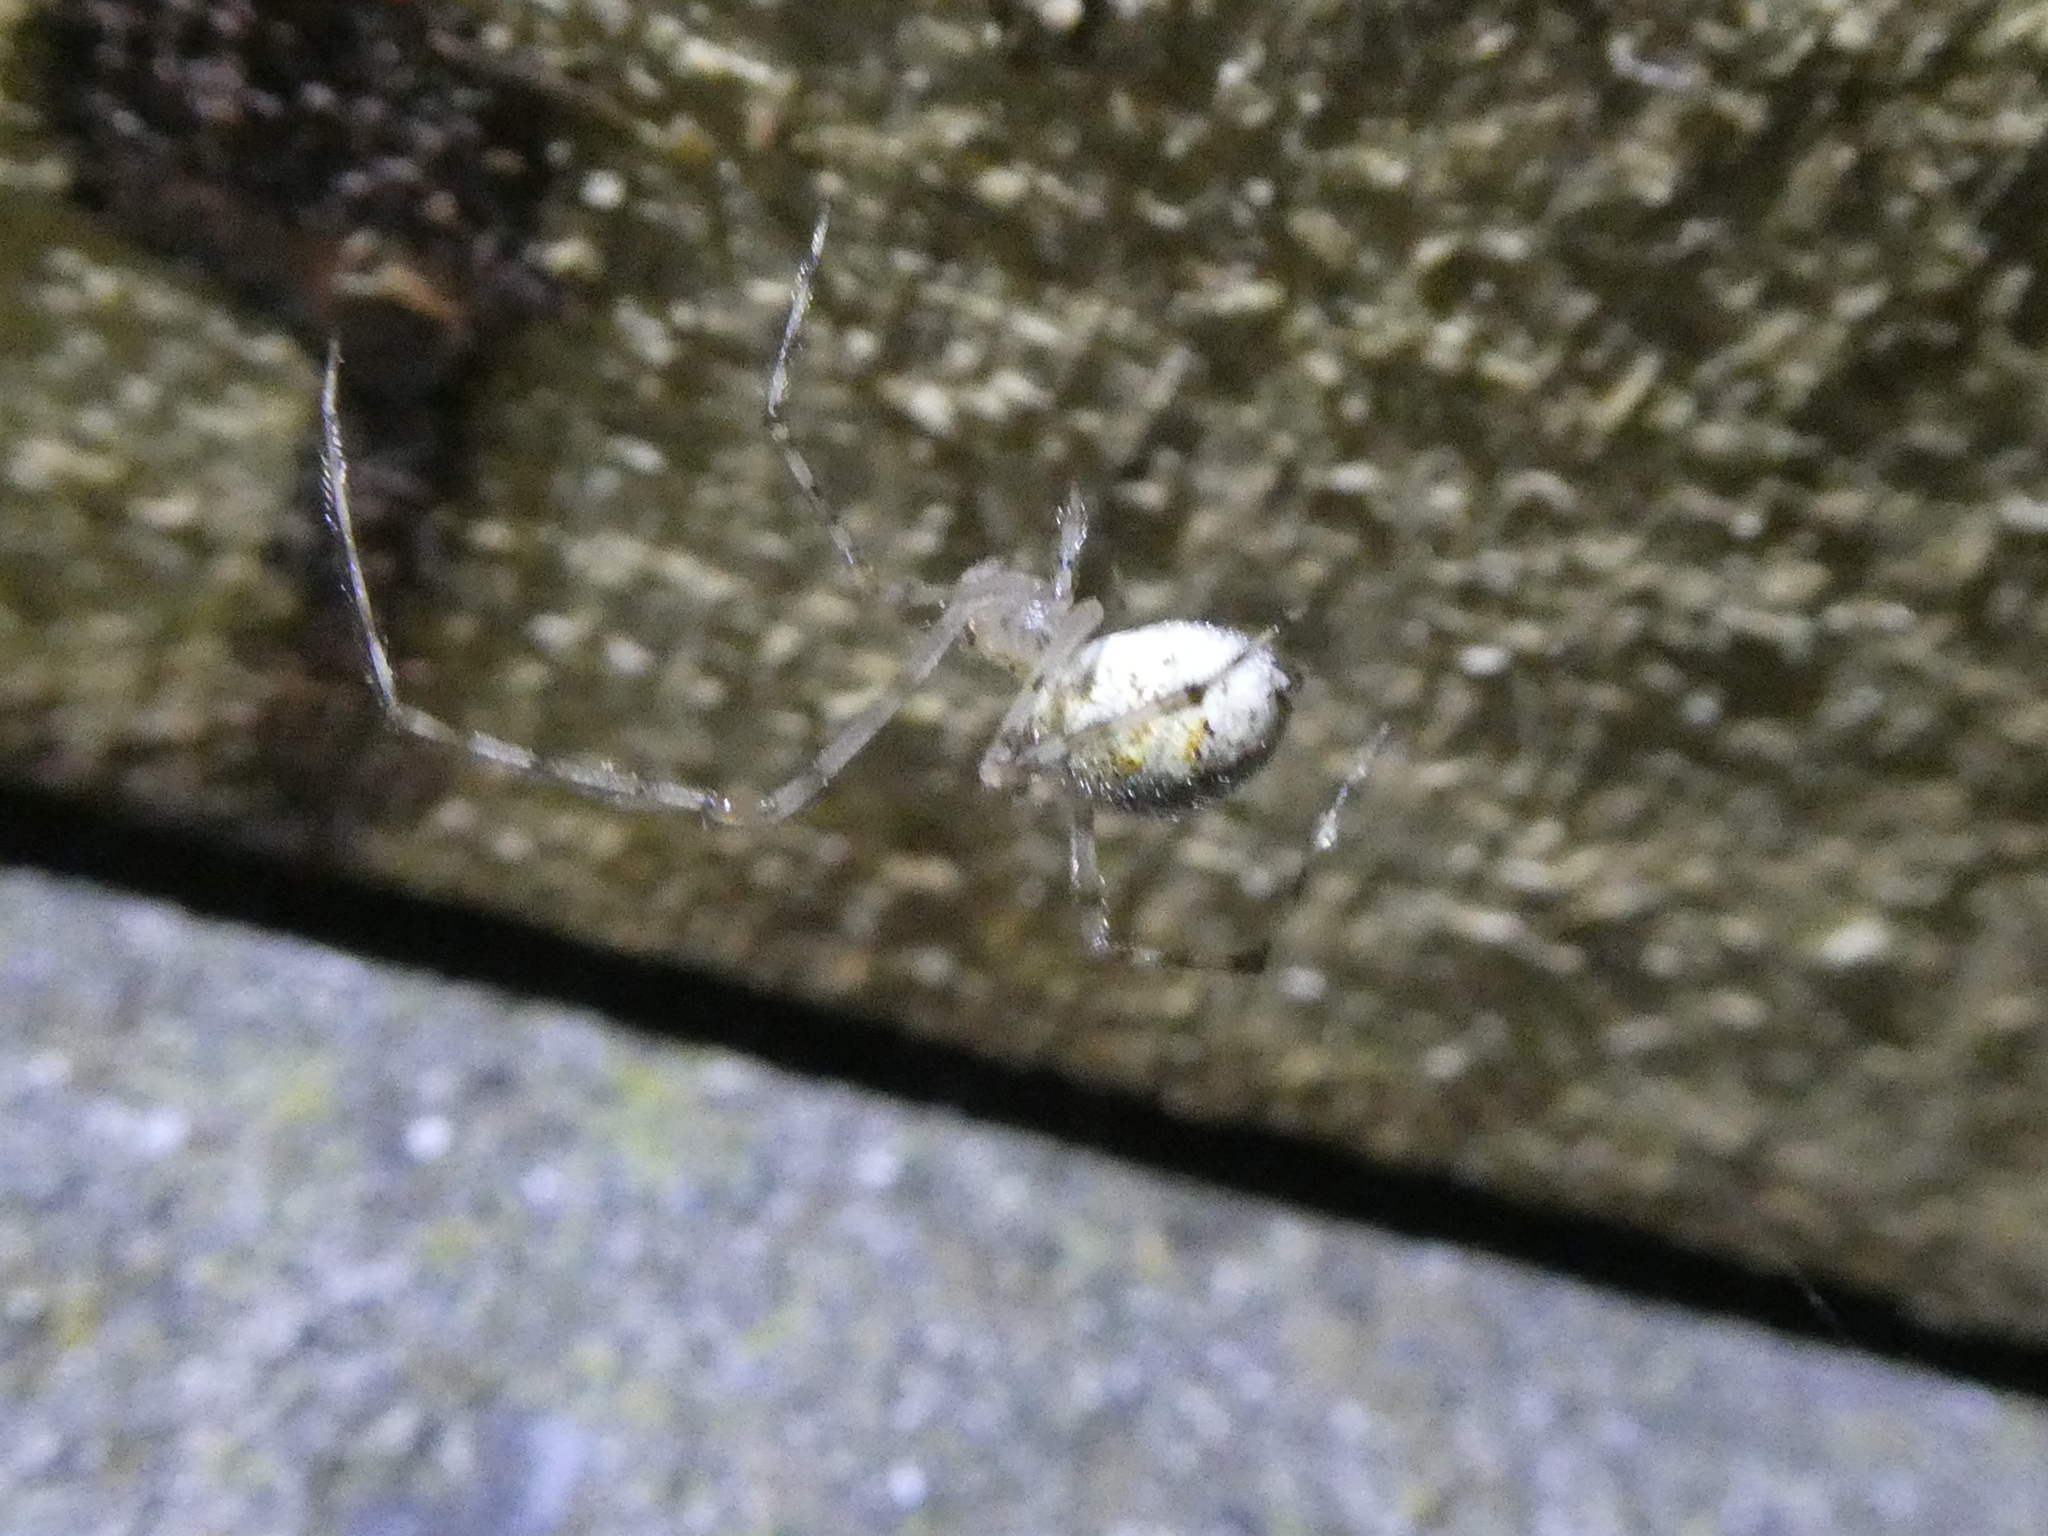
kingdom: Animalia
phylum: Arthropoda
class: Arachnida
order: Araneae
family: Theridiidae
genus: Cryptachaea
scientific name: Cryptachaea gigantipes
